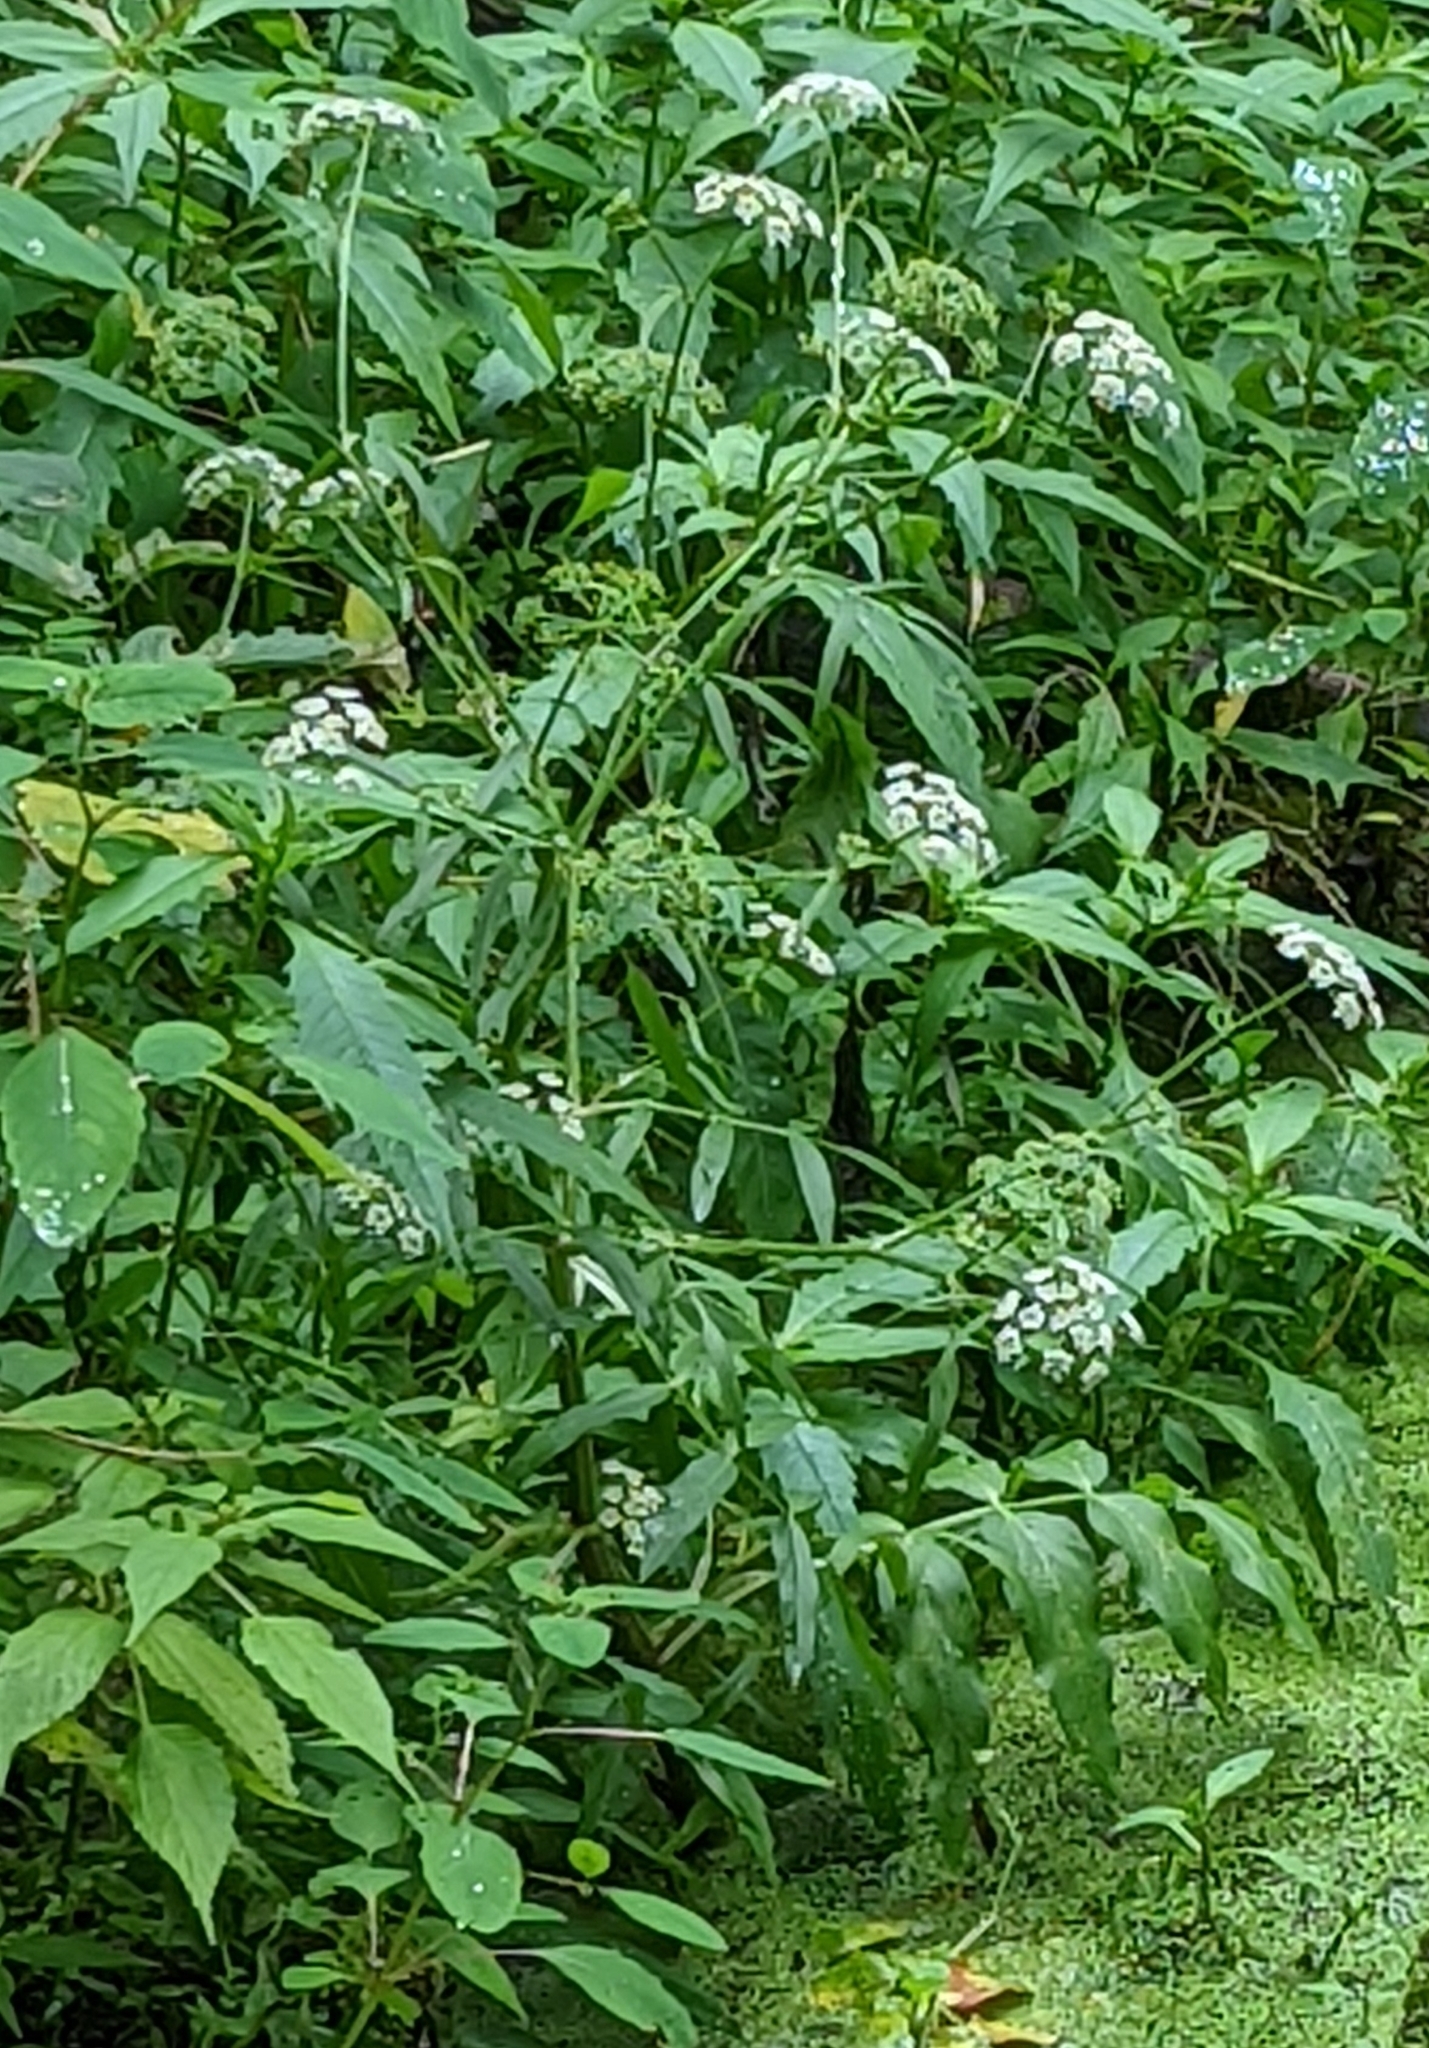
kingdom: Plantae
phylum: Tracheophyta
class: Magnoliopsida
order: Apiales
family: Apiaceae
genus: Sium
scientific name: Sium suave
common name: Hemlock water-parsnip
